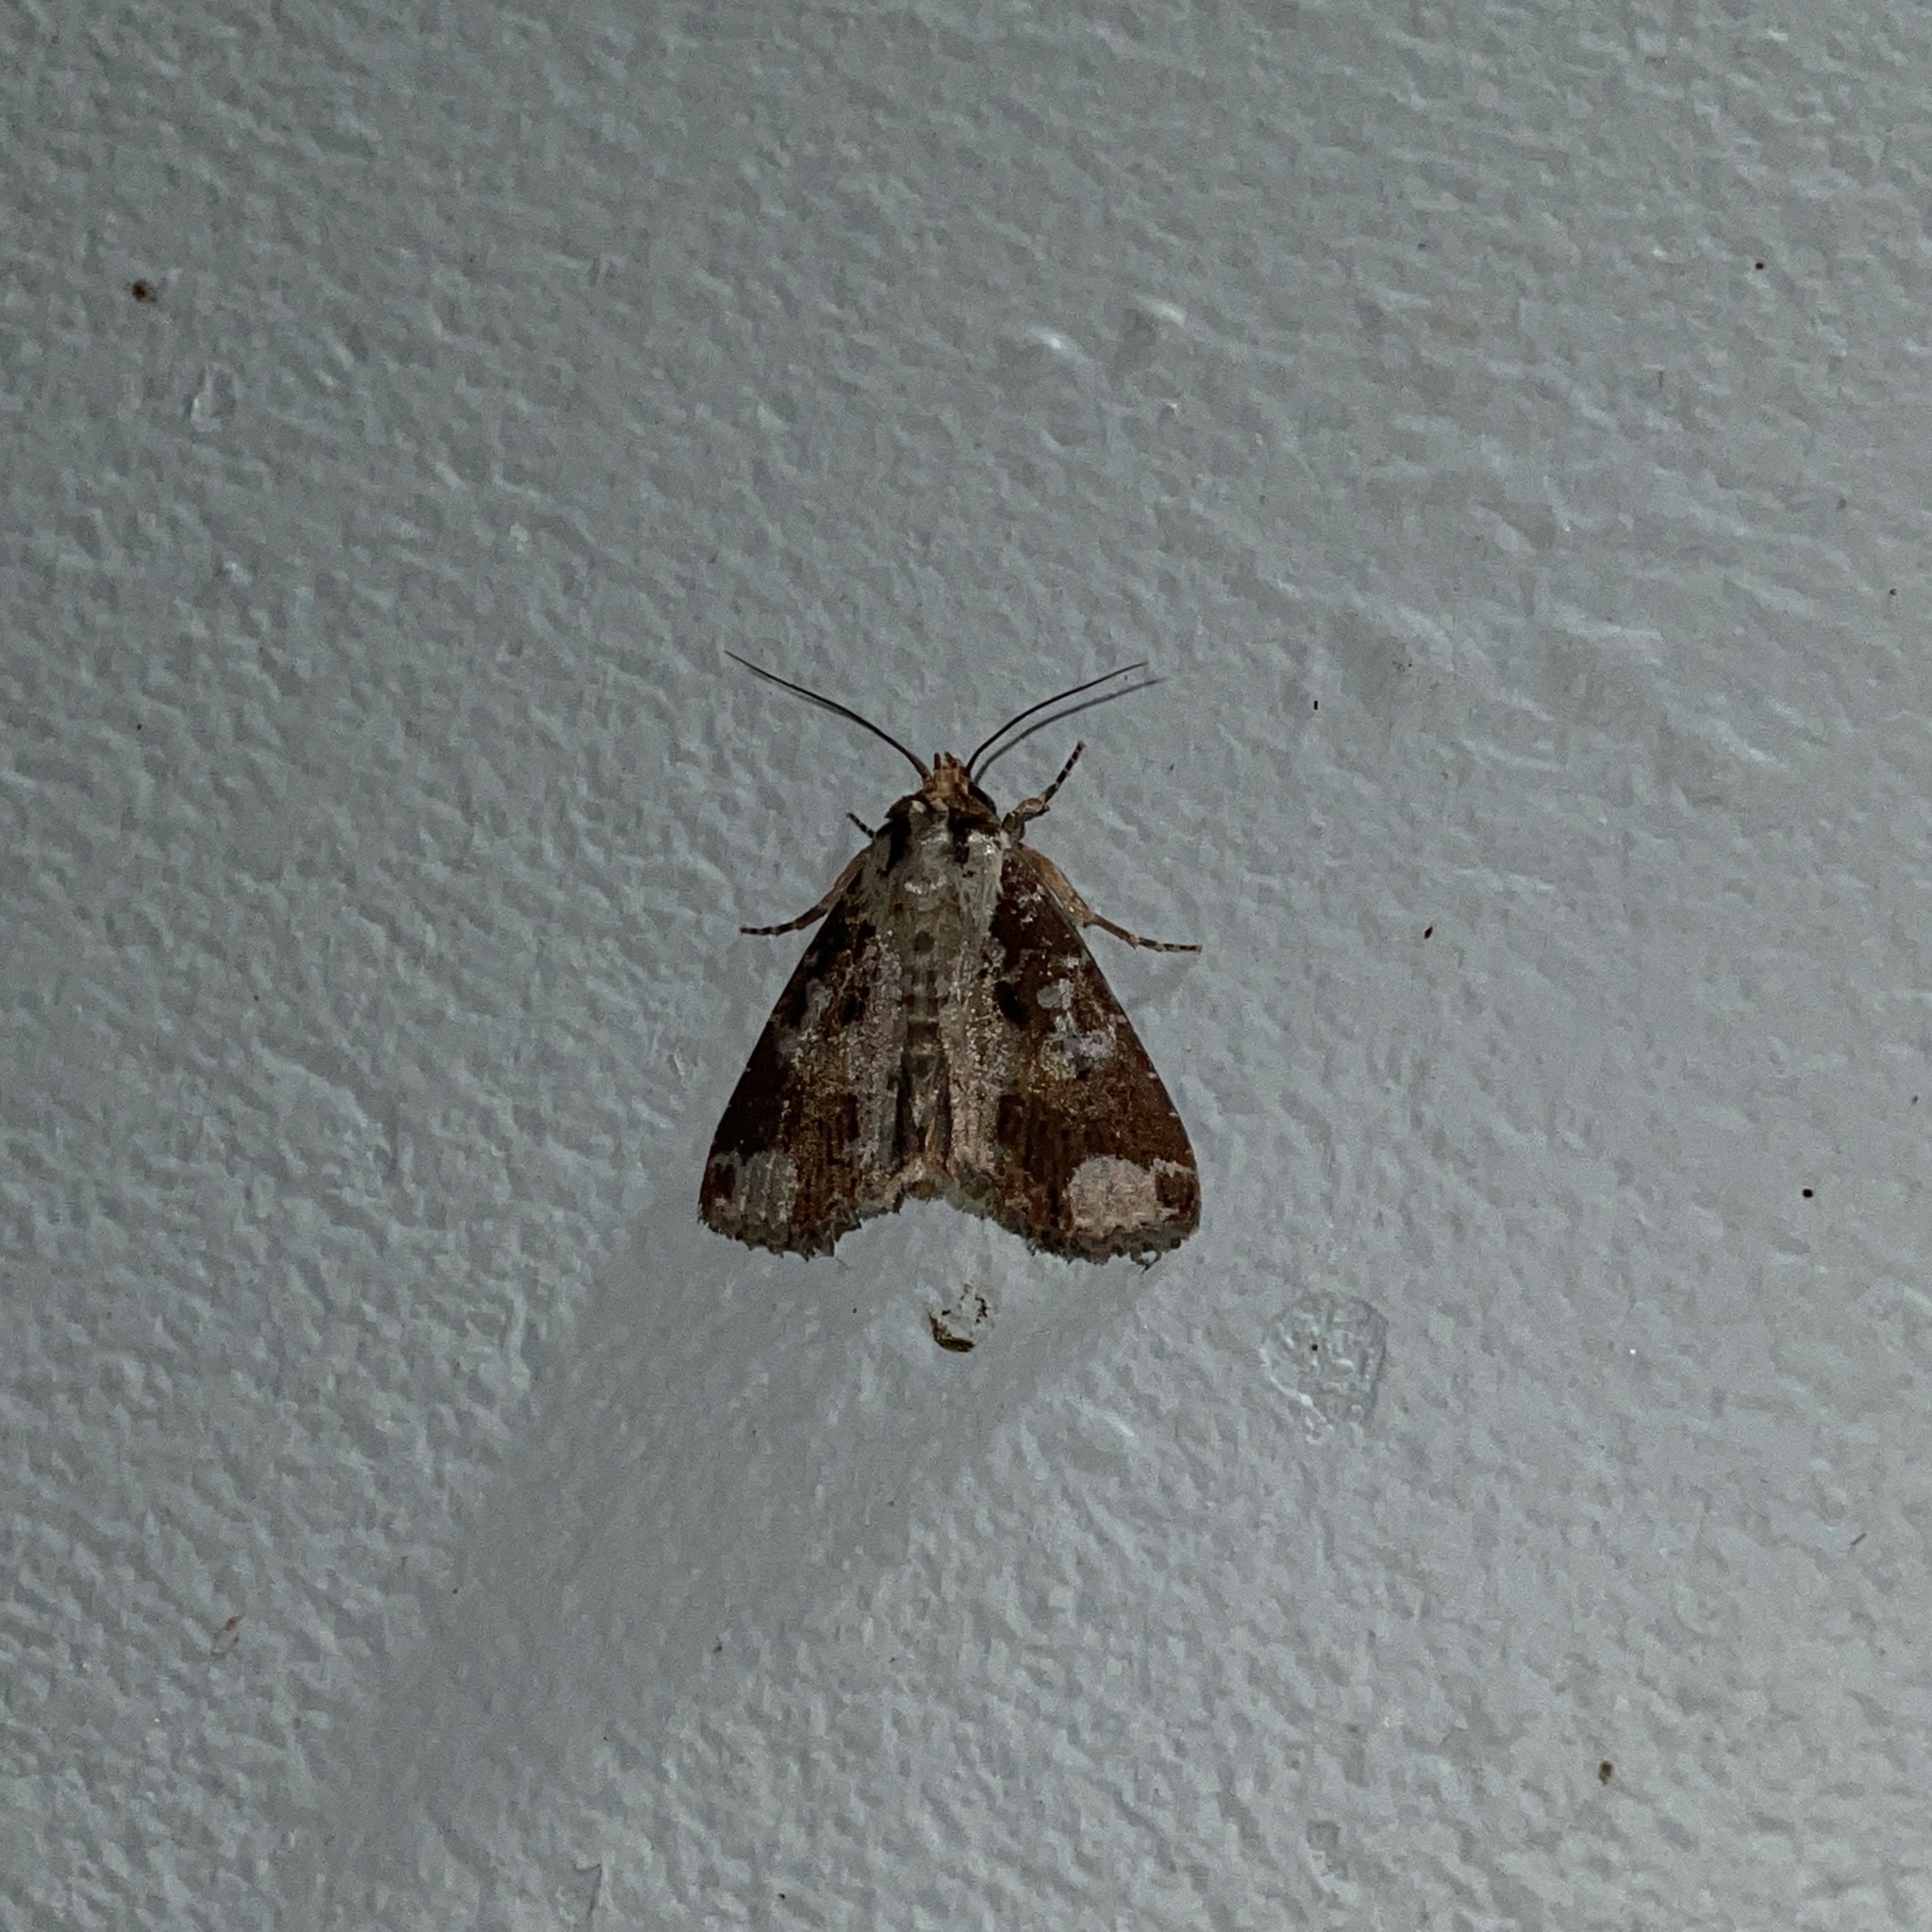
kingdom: Animalia
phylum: Arthropoda
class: Insecta
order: Lepidoptera
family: Noctuidae
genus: Condica
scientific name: Condica imitata
